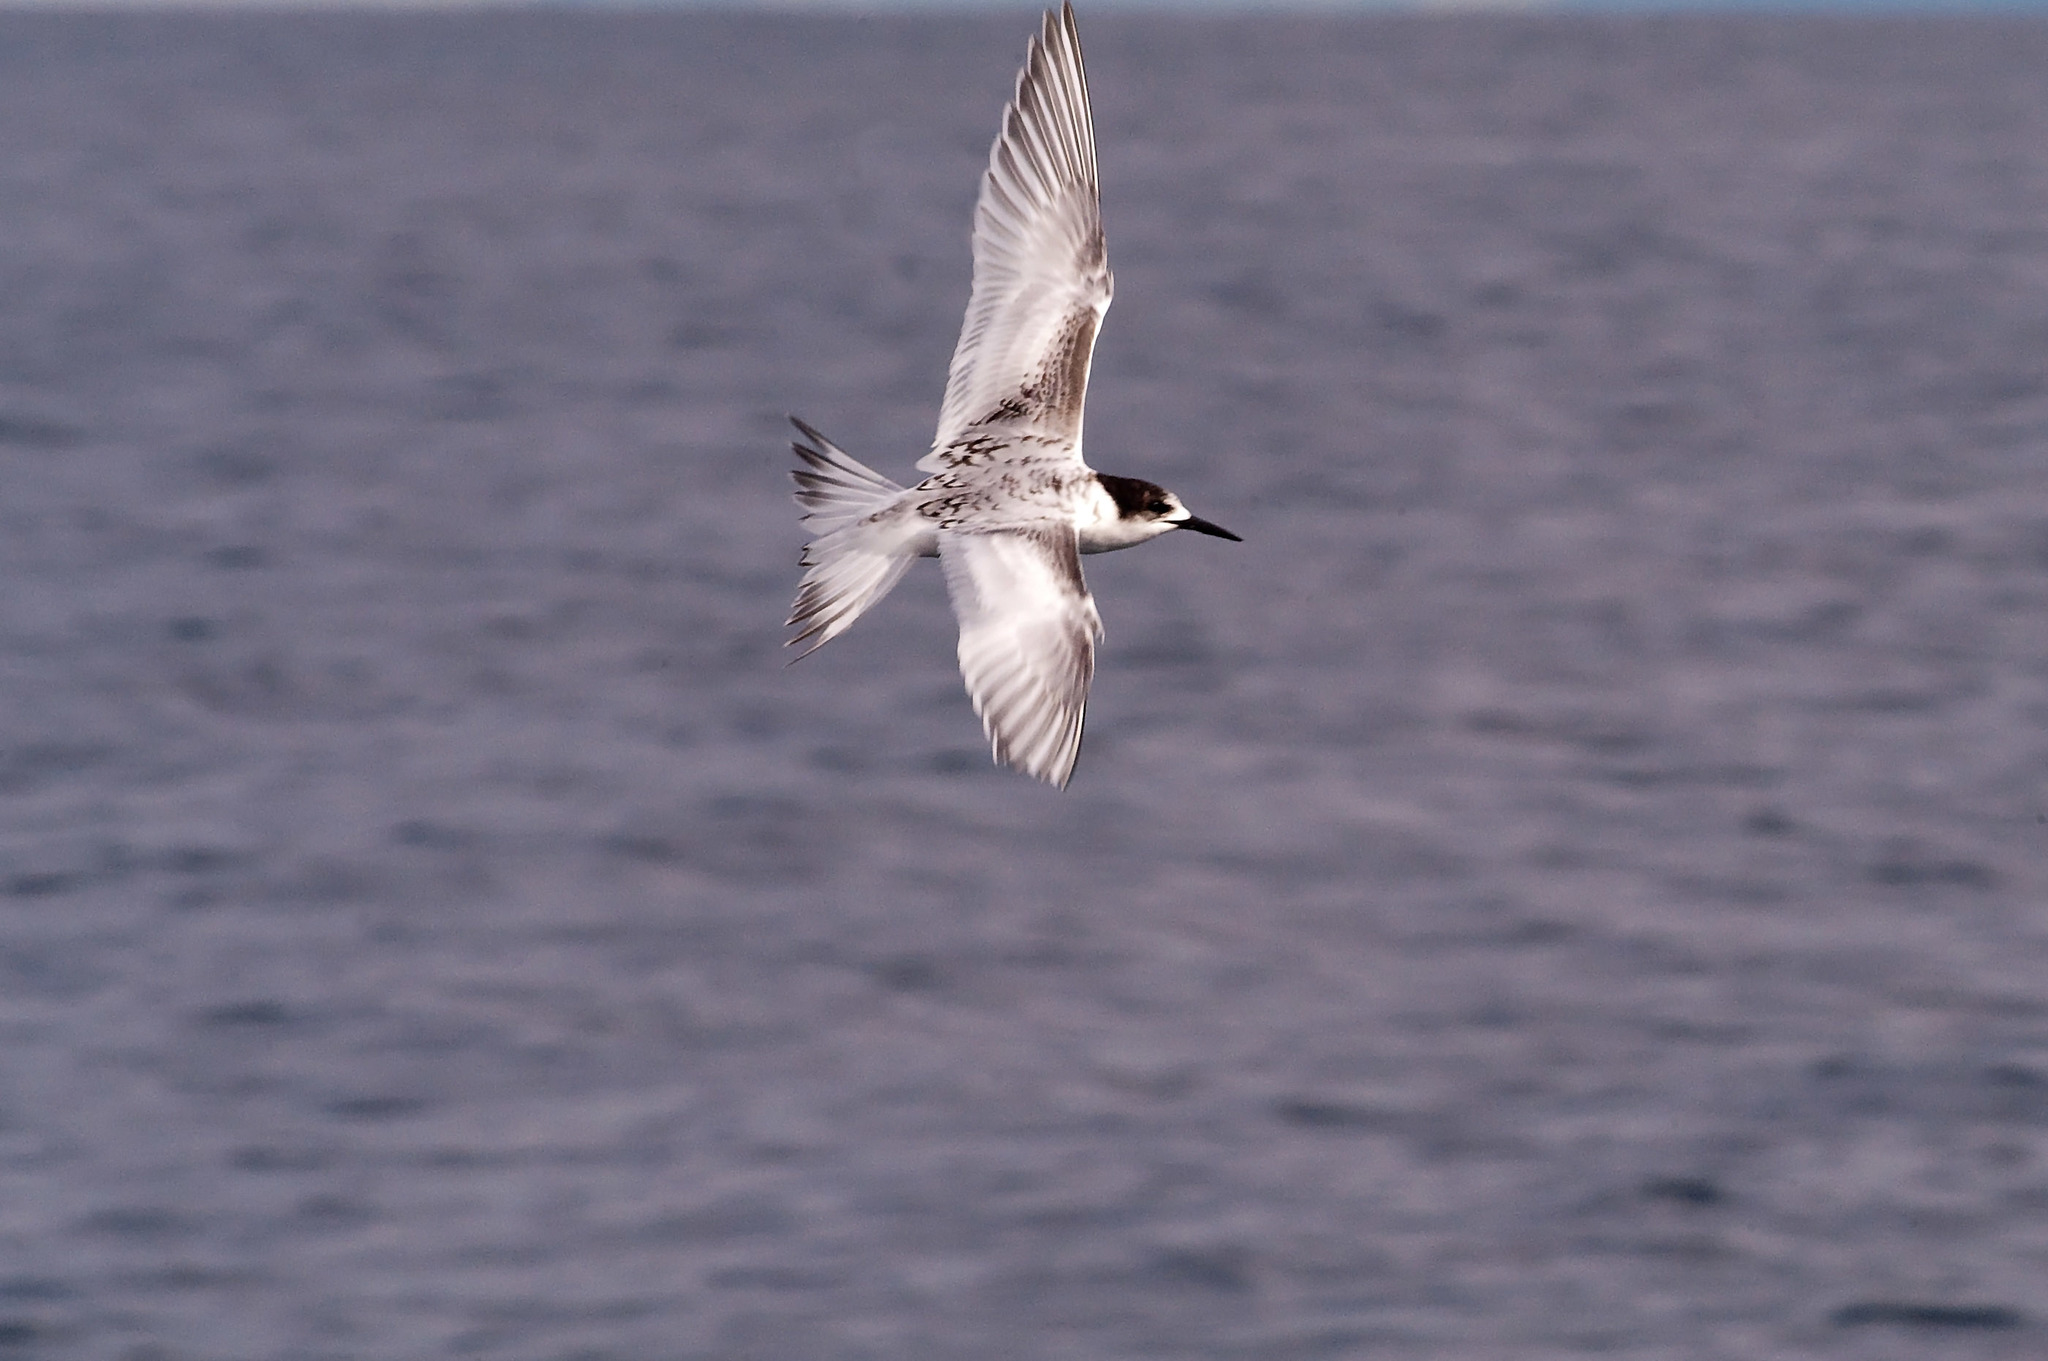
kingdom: Animalia
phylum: Chordata
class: Aves
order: Charadriiformes
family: Laridae
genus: Sterna
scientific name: Sterna striata
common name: White-fronted tern
